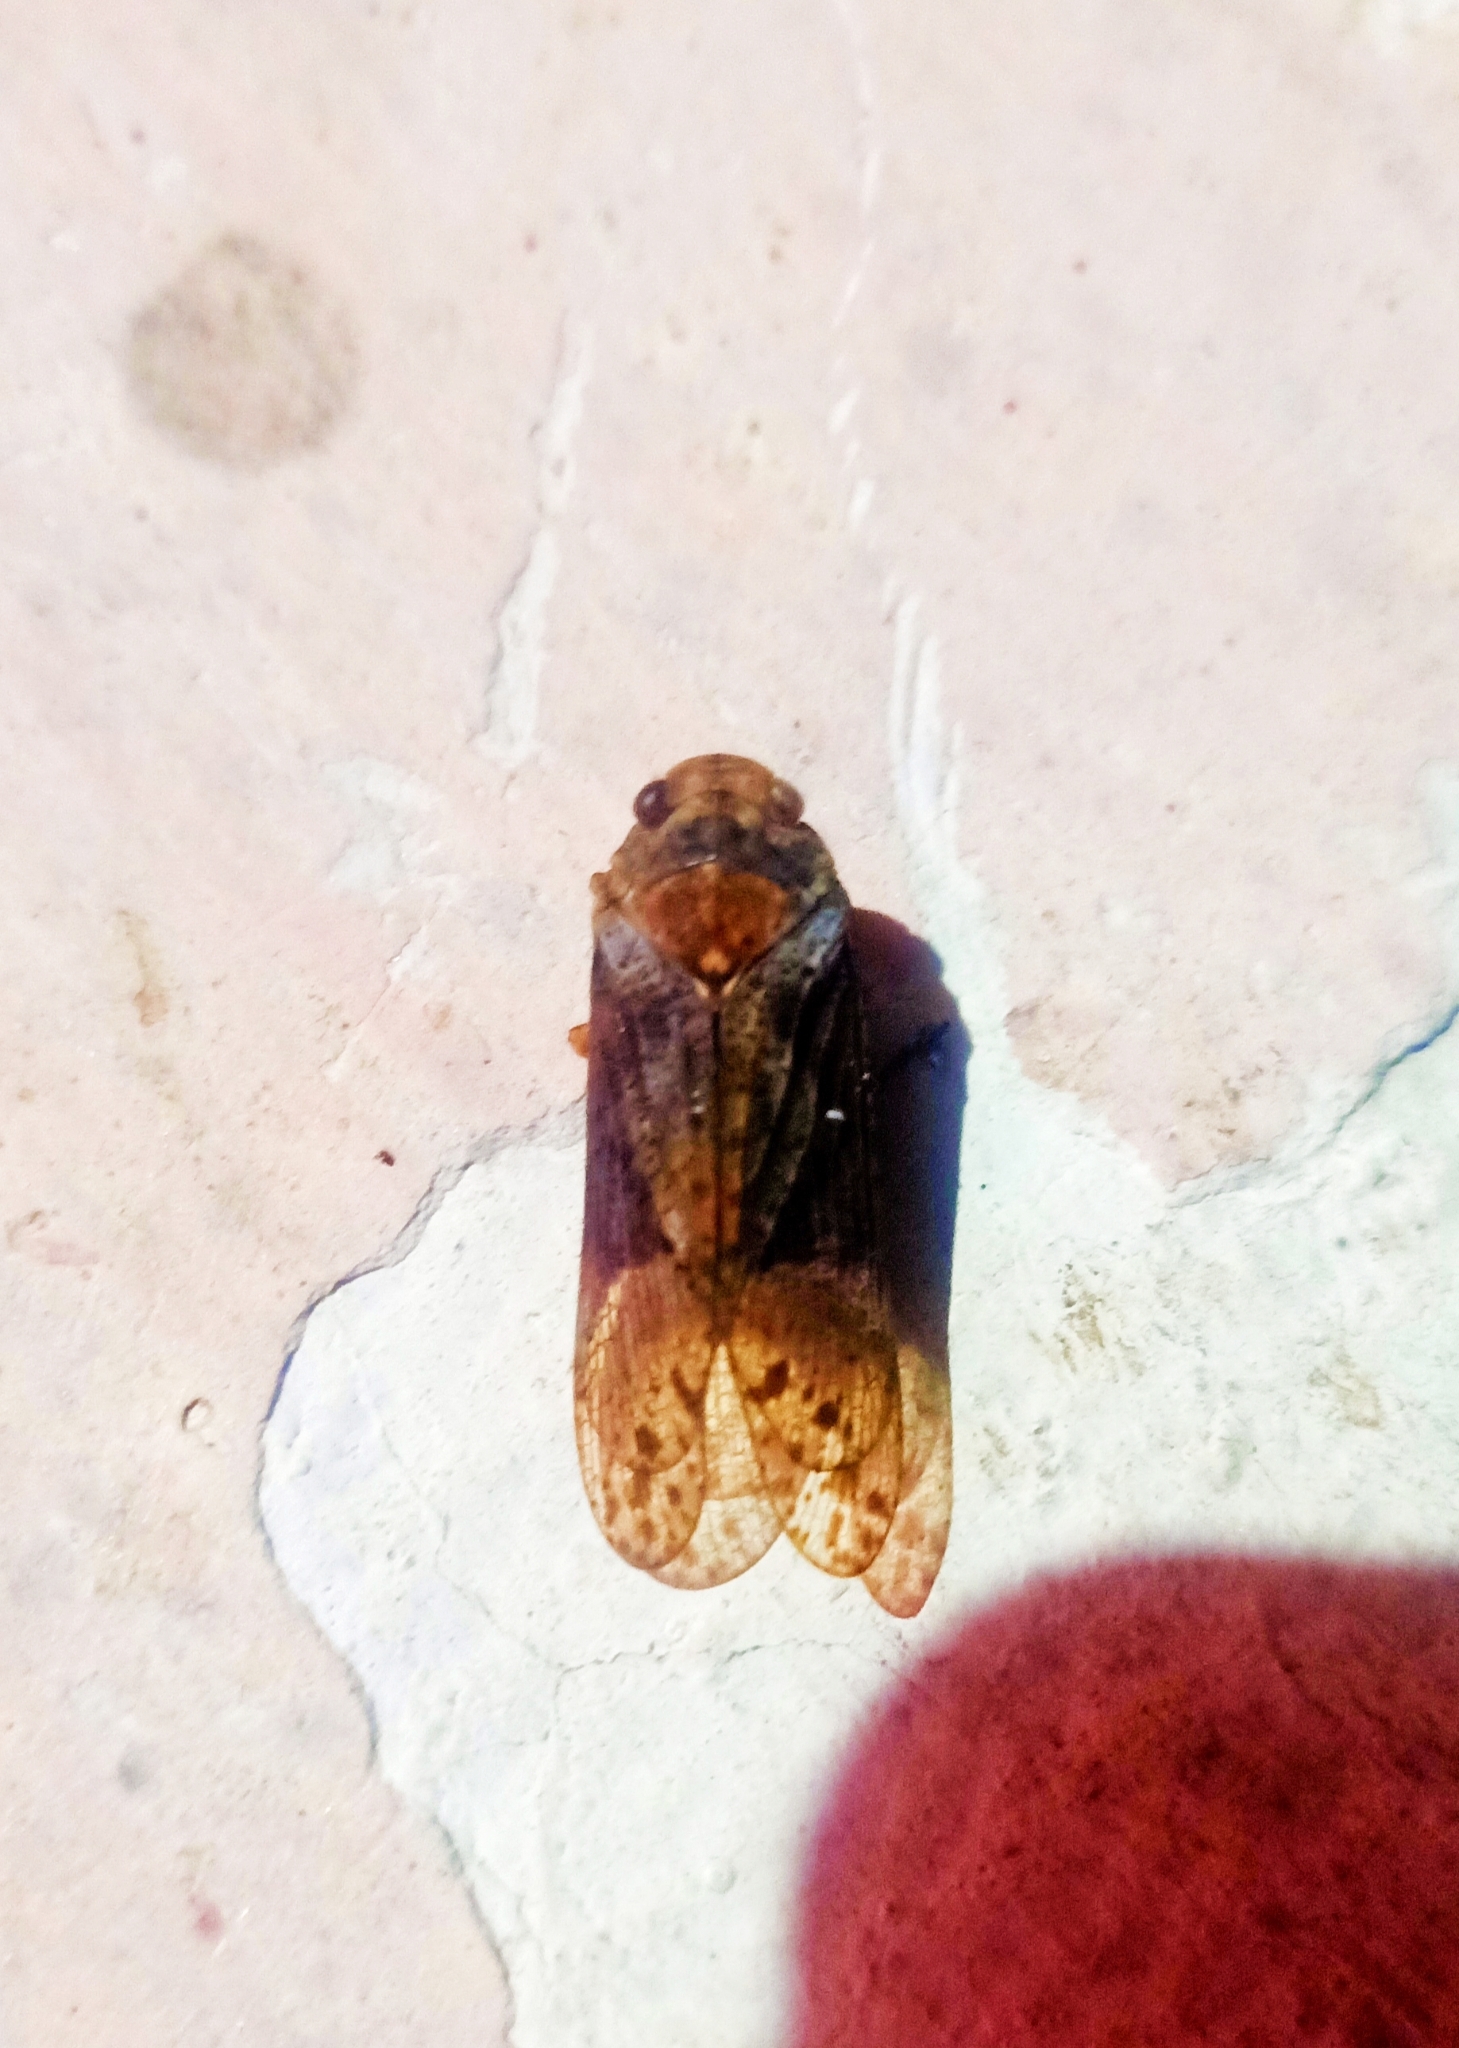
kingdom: Animalia
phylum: Arthropoda
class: Insecta
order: Hemiptera
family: Fulgoridae
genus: Gebenna
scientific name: Gebenna sylvia
